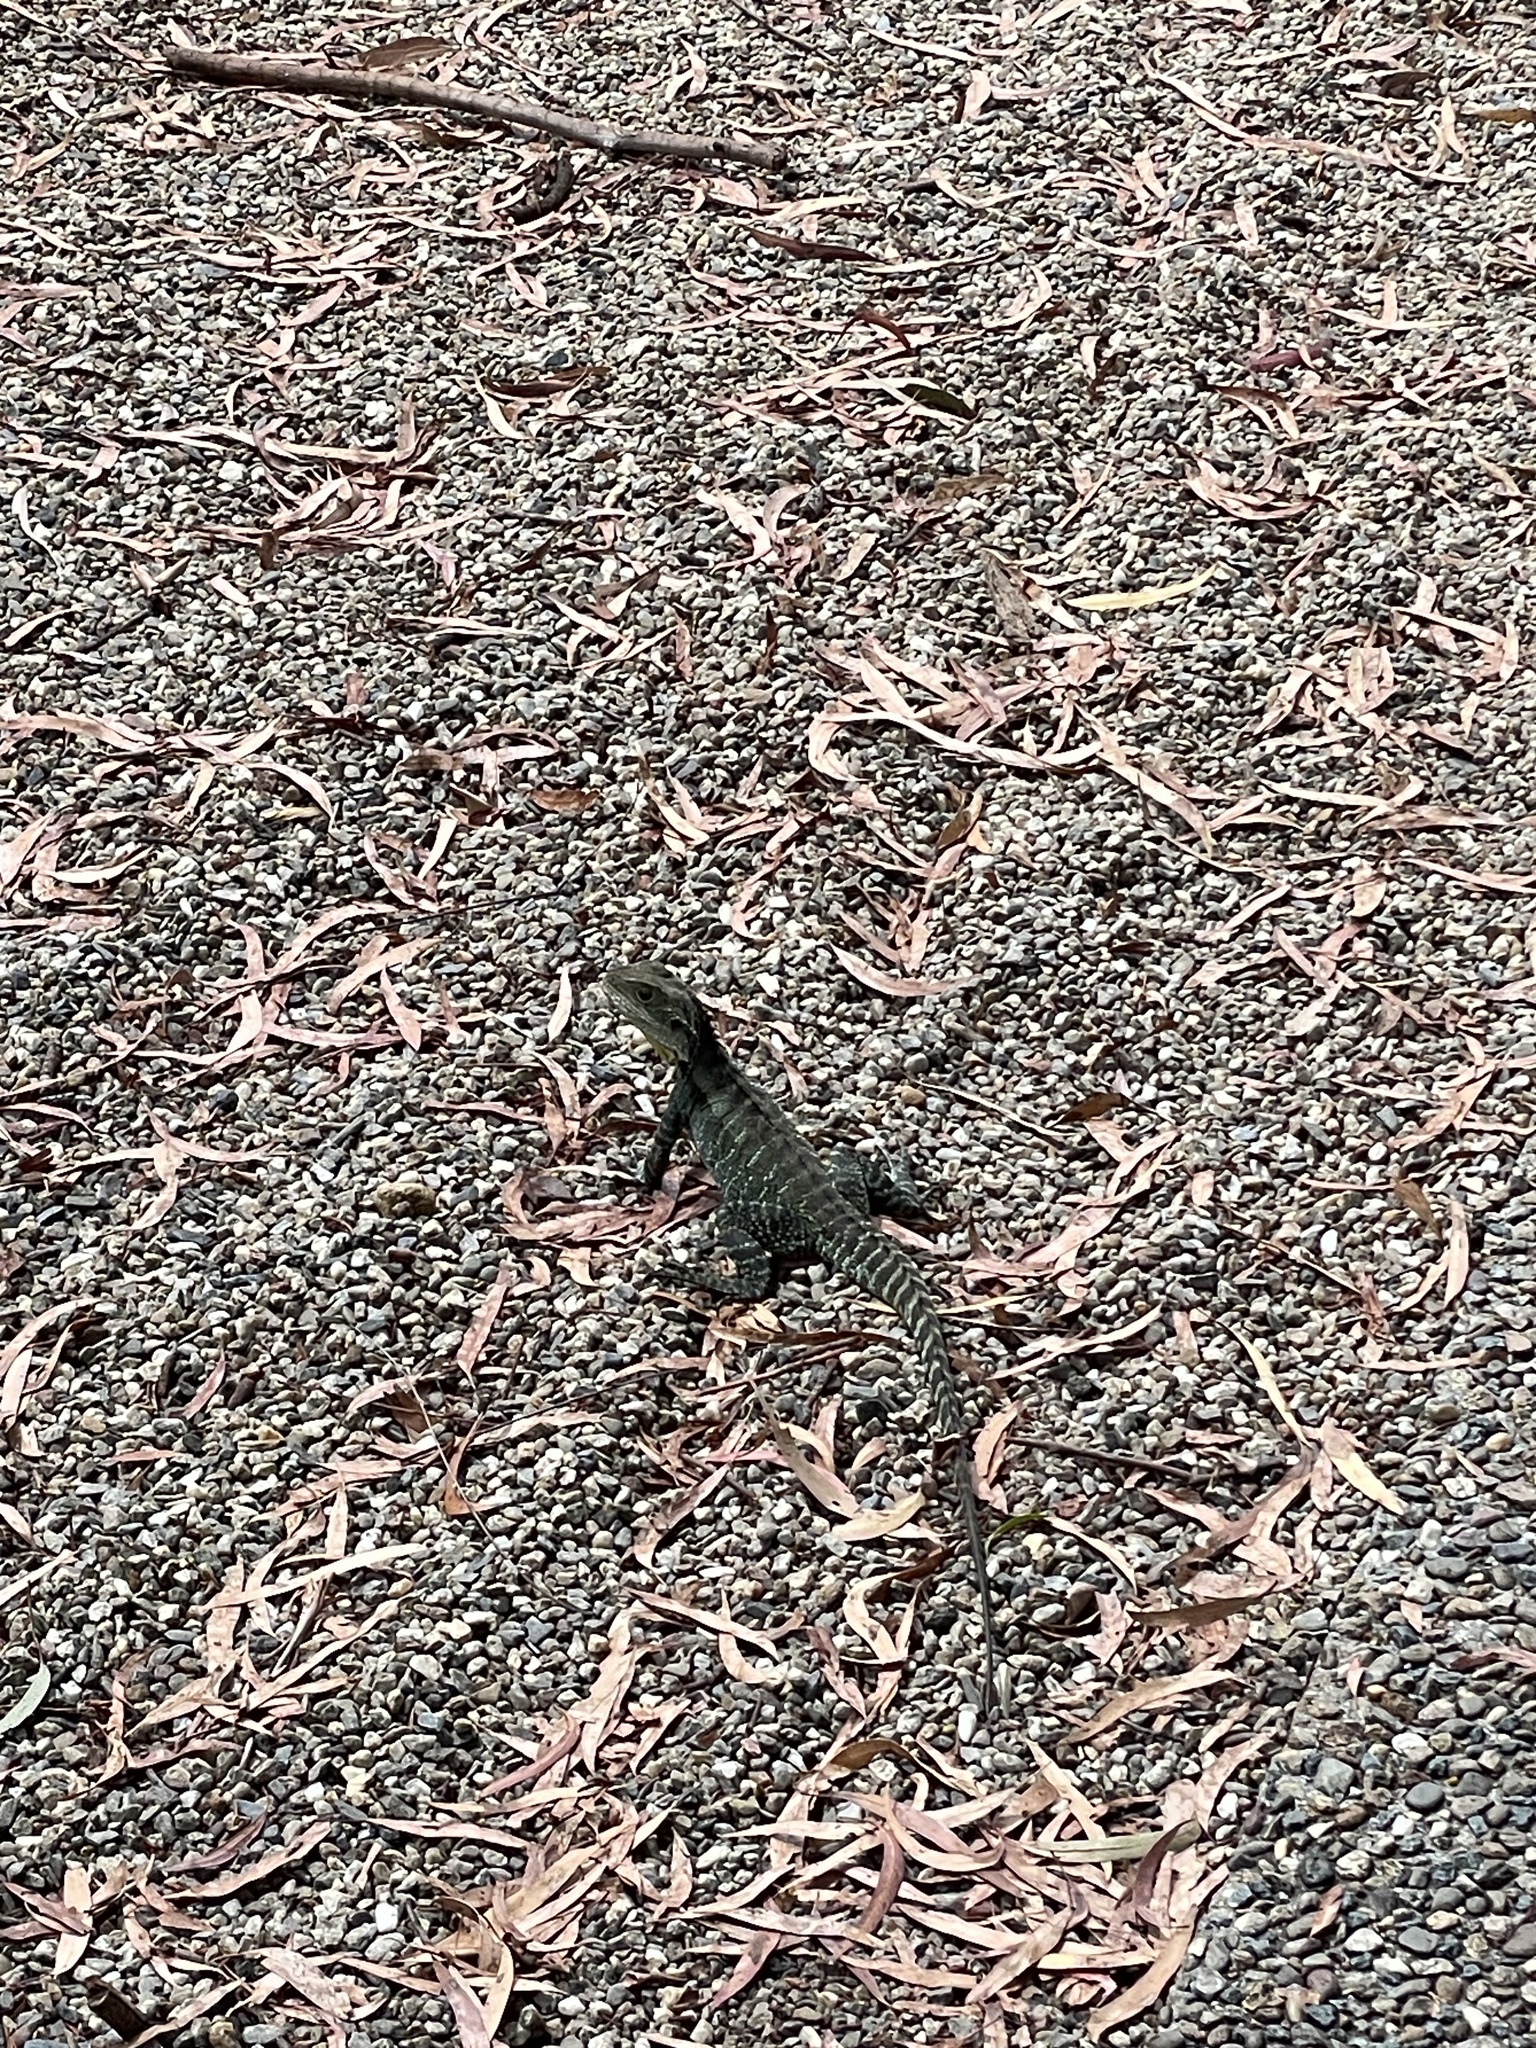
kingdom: Animalia
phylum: Chordata
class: Squamata
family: Agamidae
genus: Intellagama
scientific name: Intellagama lesueurii
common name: Eastern water dragon
